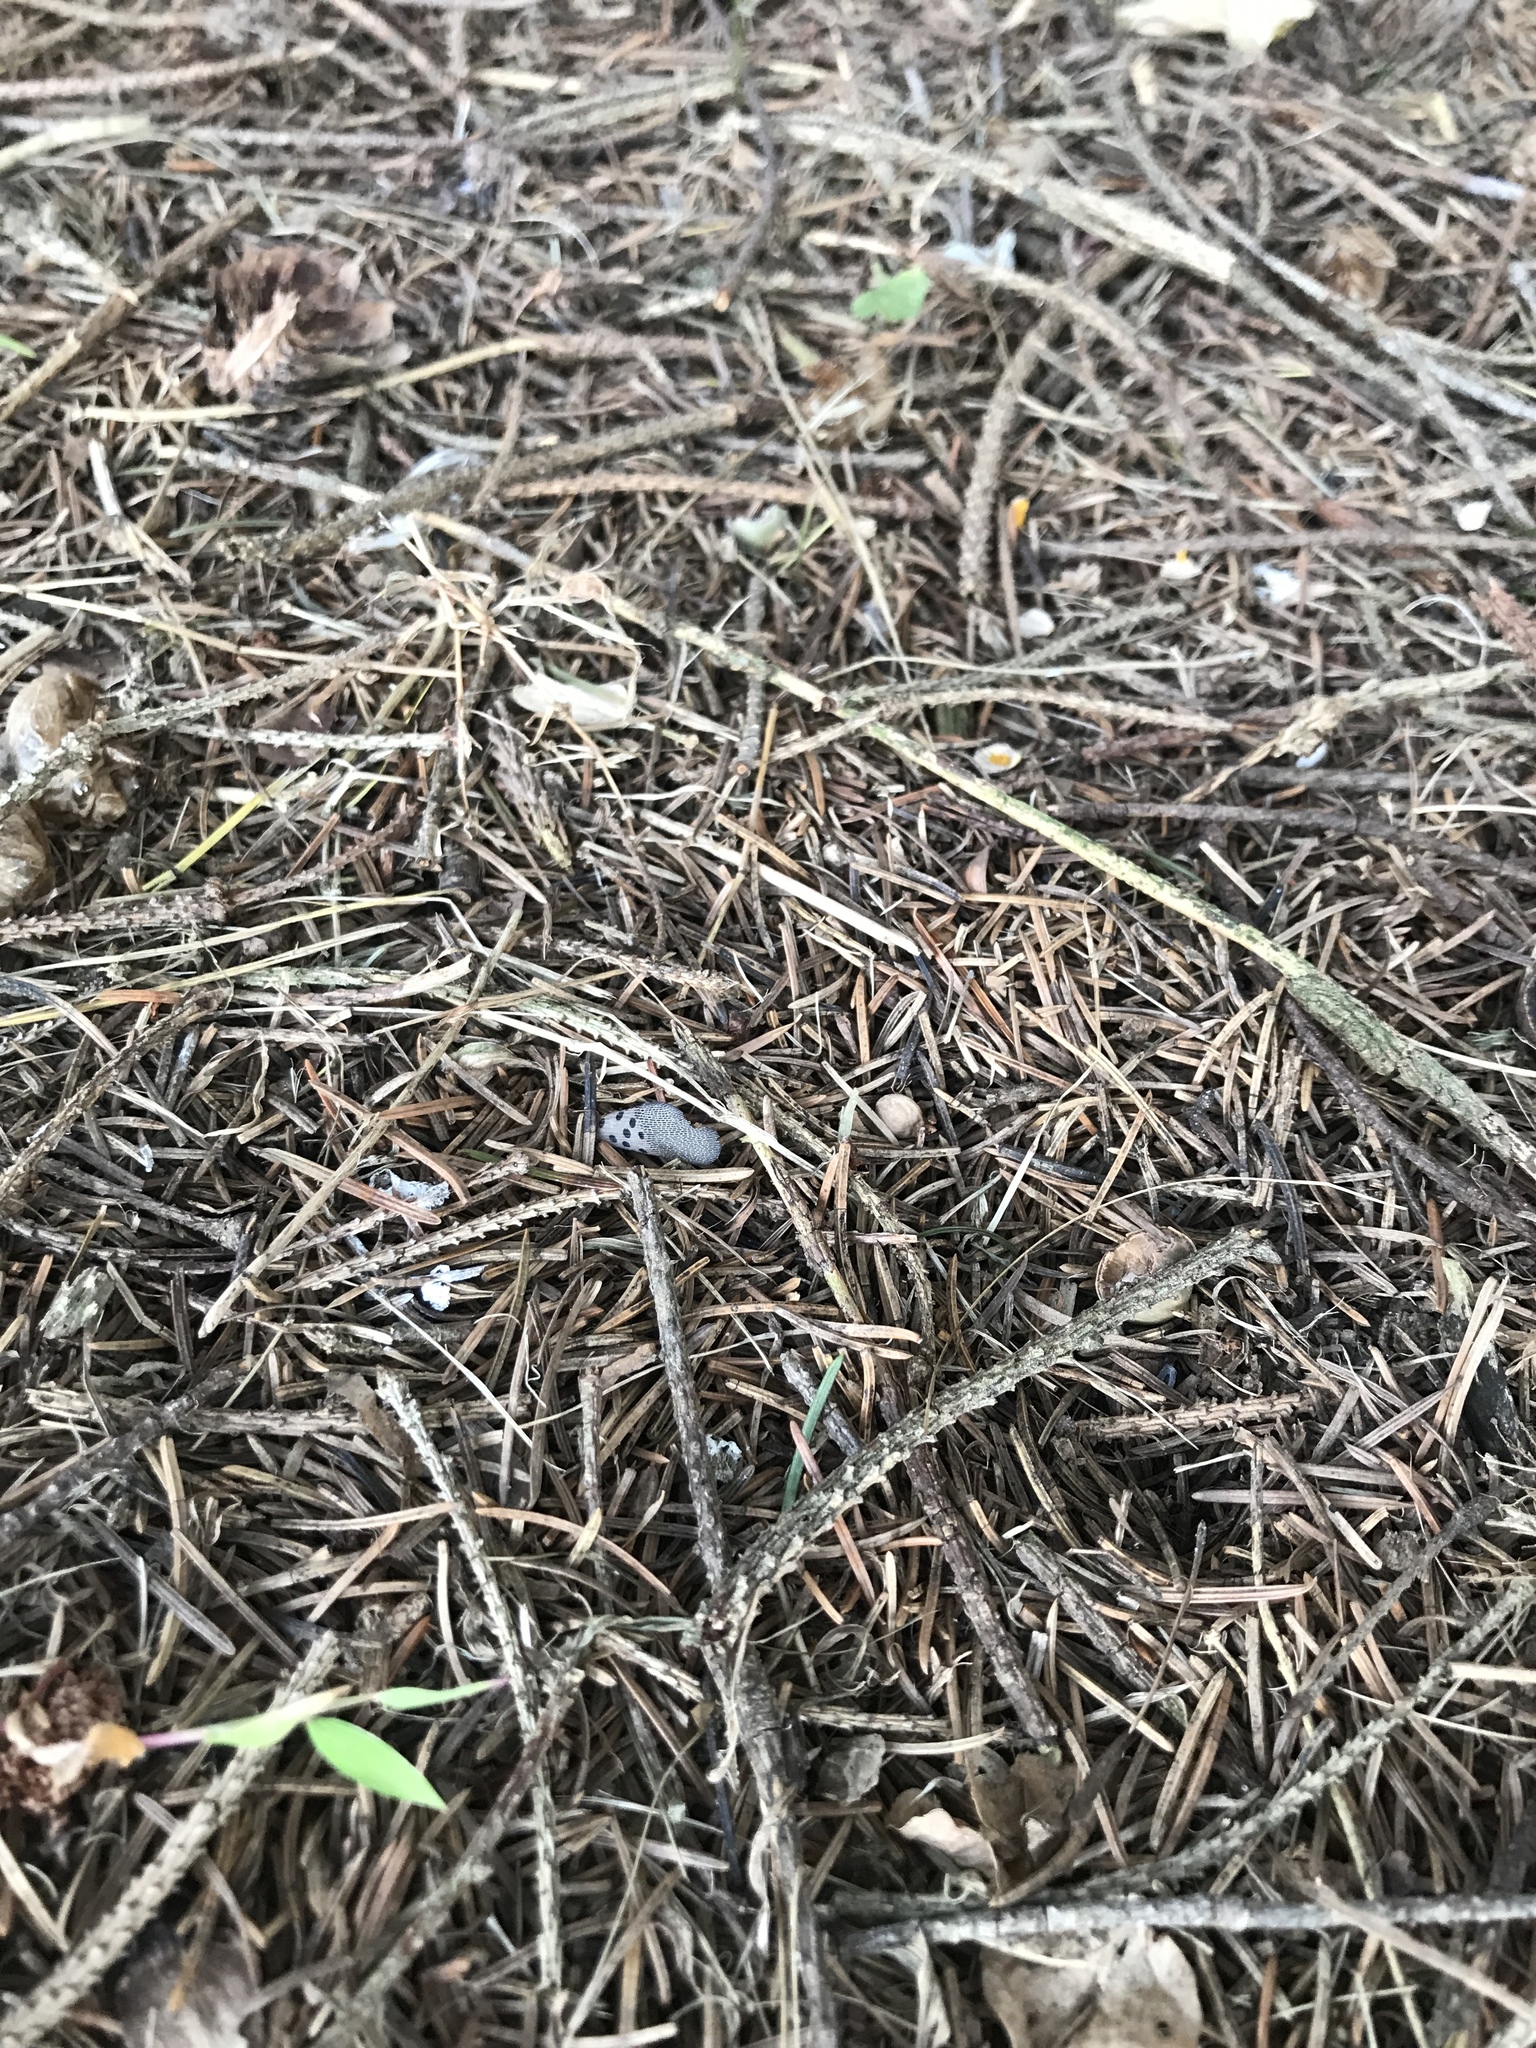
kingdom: Animalia
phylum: Arthropoda
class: Insecta
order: Hemiptera
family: Fulgoridae
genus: Lycorma
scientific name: Lycorma delicatula
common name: Spotted lanternfly
